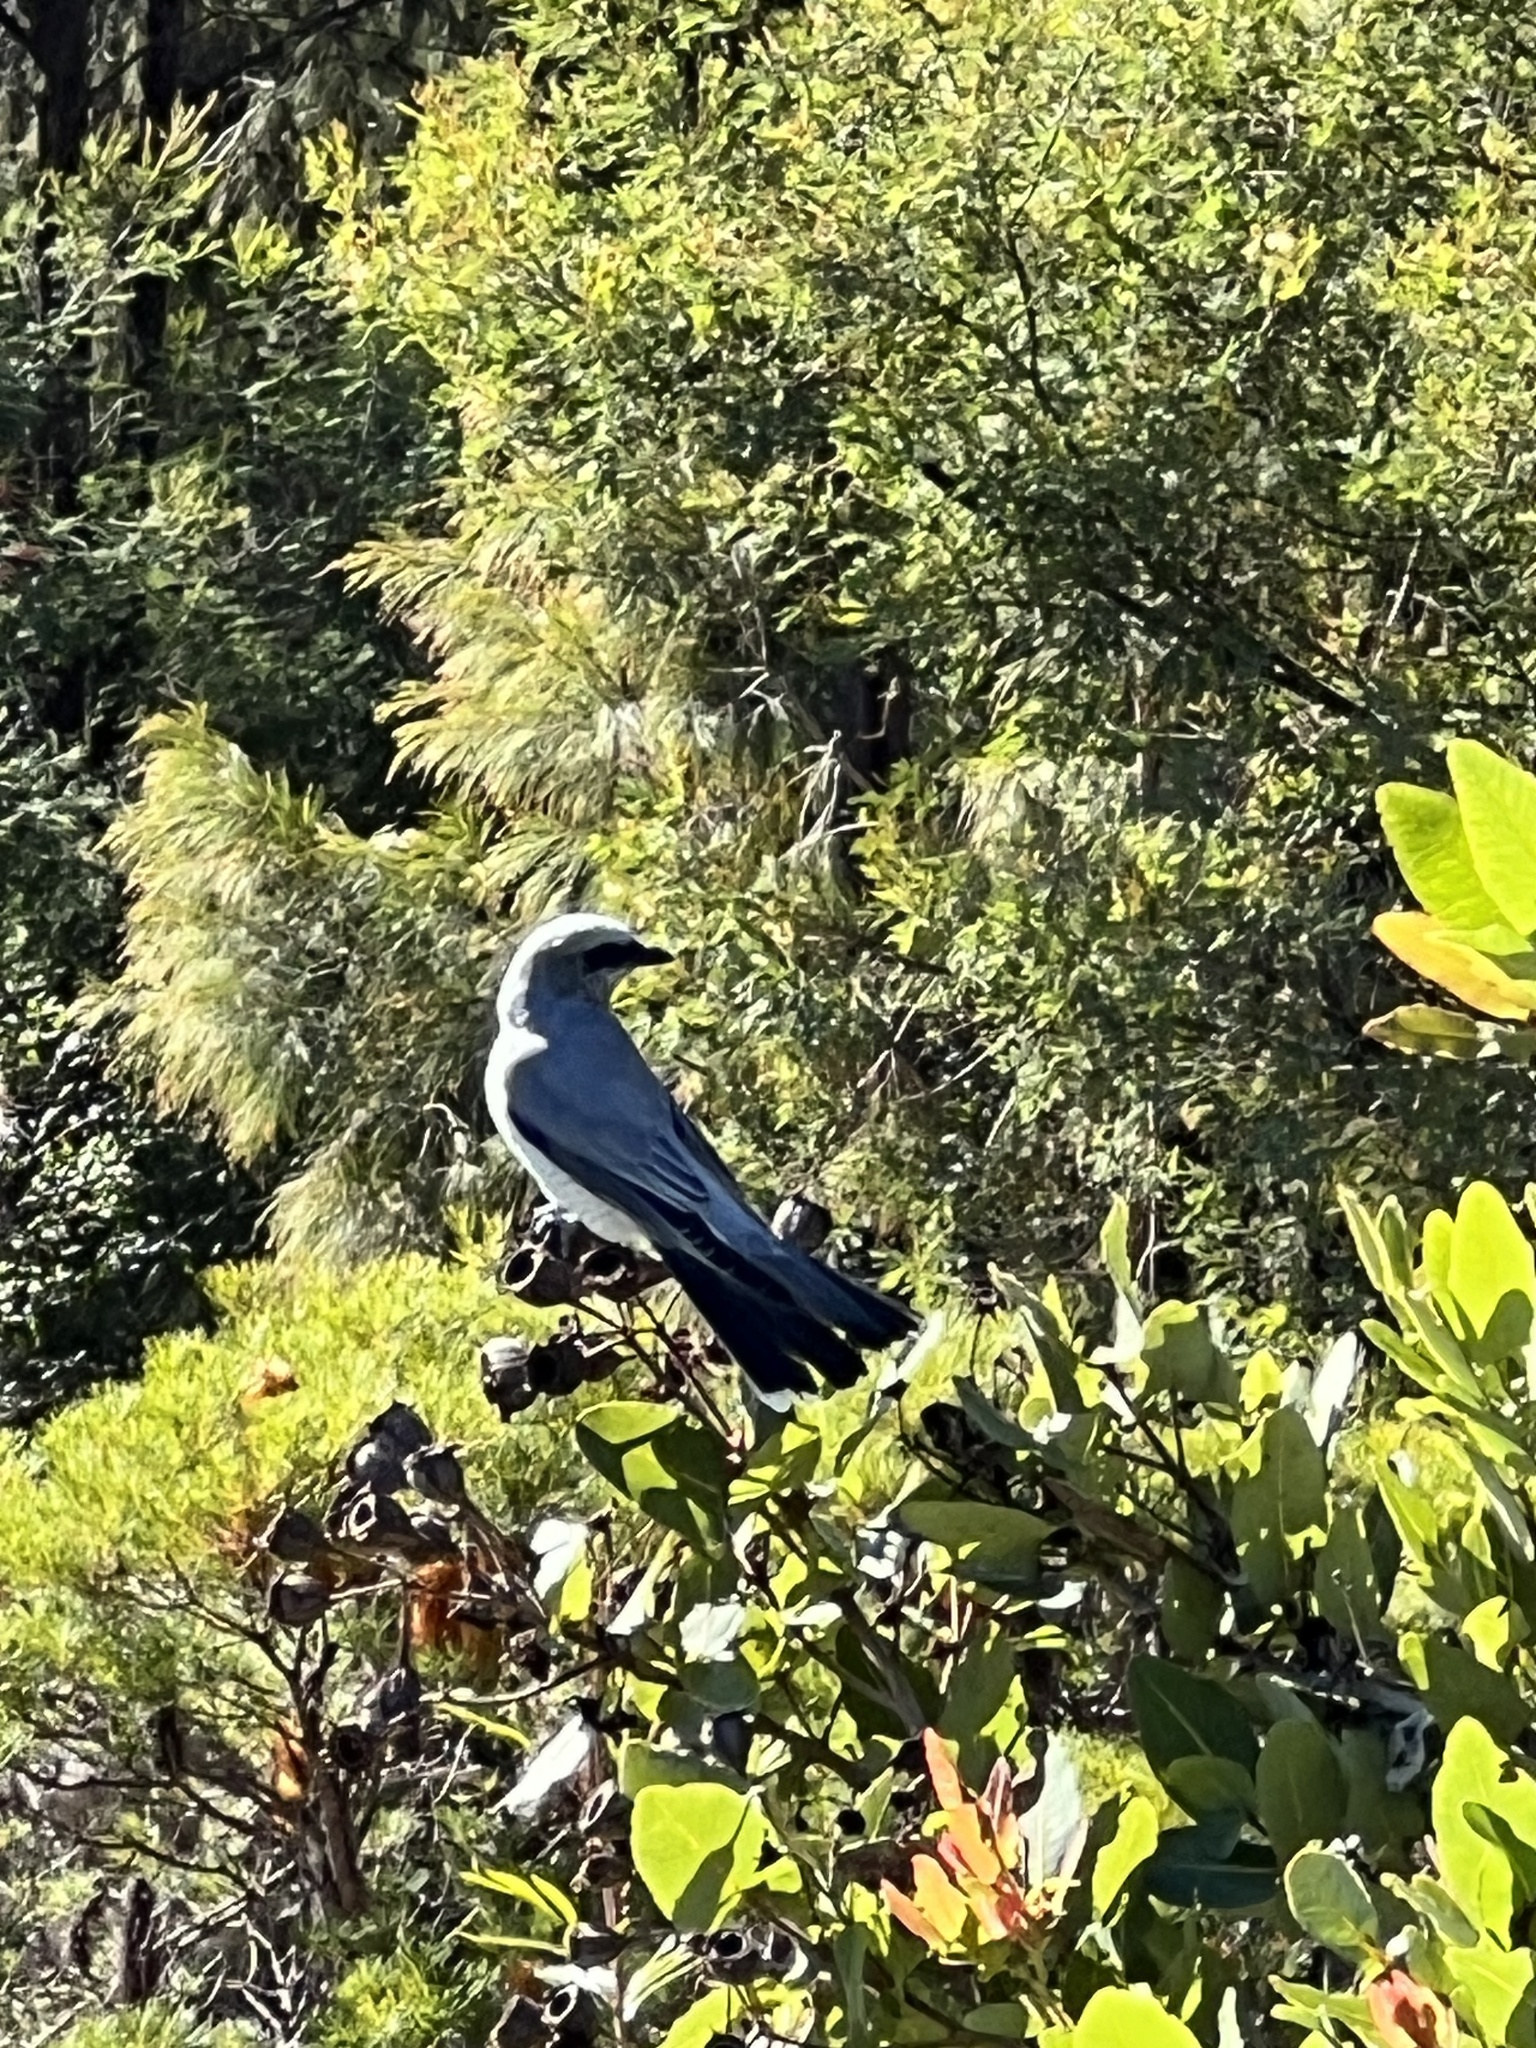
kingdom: Animalia
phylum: Chordata
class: Aves
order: Passeriformes
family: Campephagidae
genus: Coracina
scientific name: Coracina papuensis
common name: White-bellied cuckooshrike
